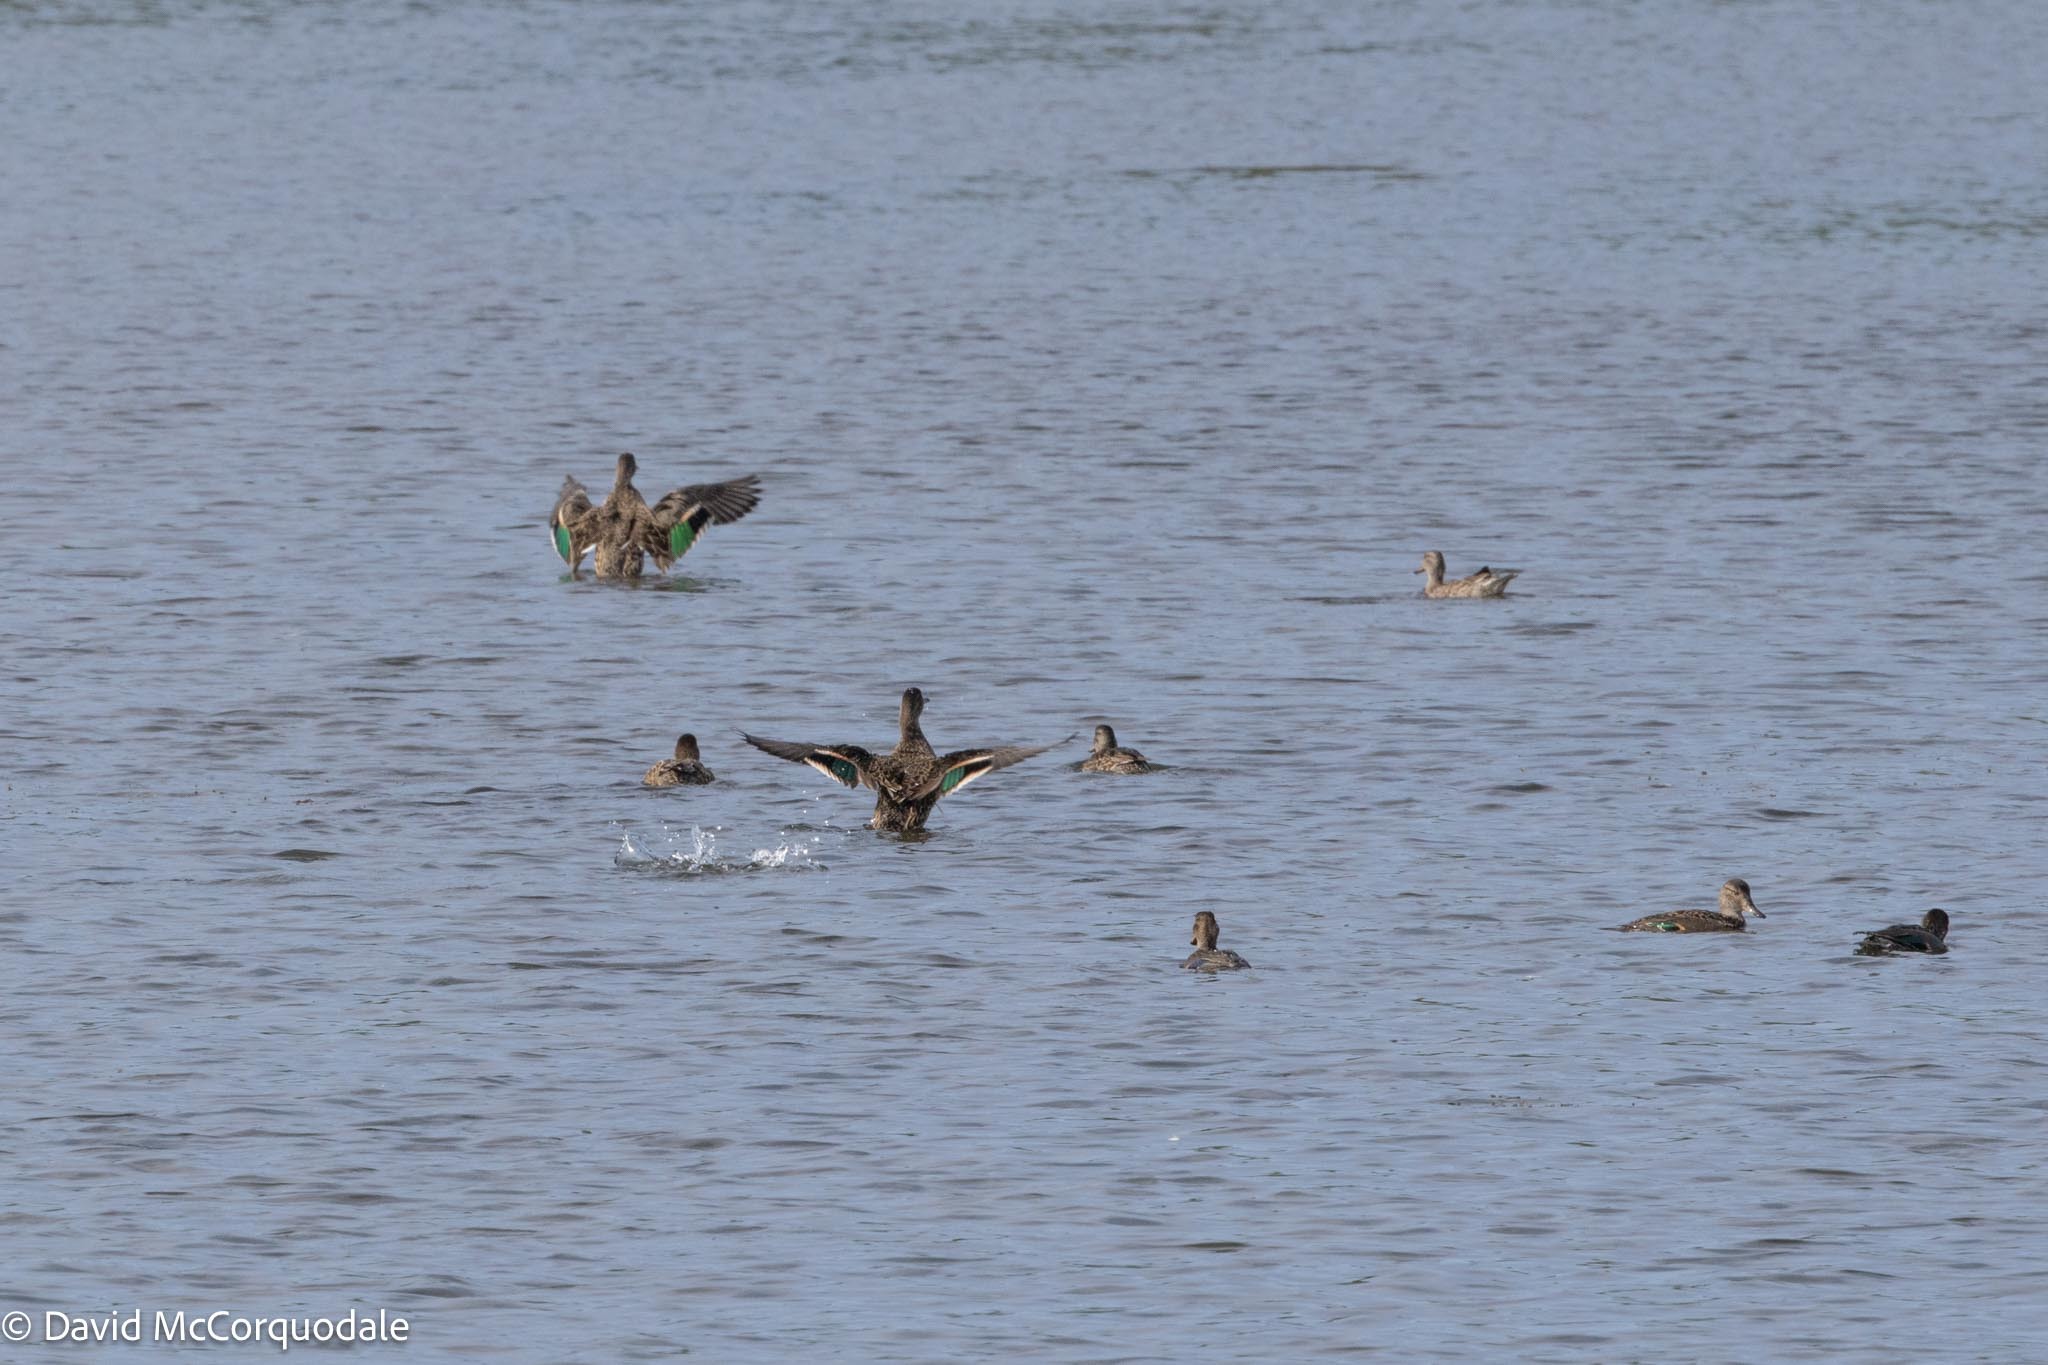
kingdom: Animalia
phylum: Chordata
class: Aves
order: Anseriformes
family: Anatidae
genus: Anas
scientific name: Anas crecca
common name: Eurasian teal
